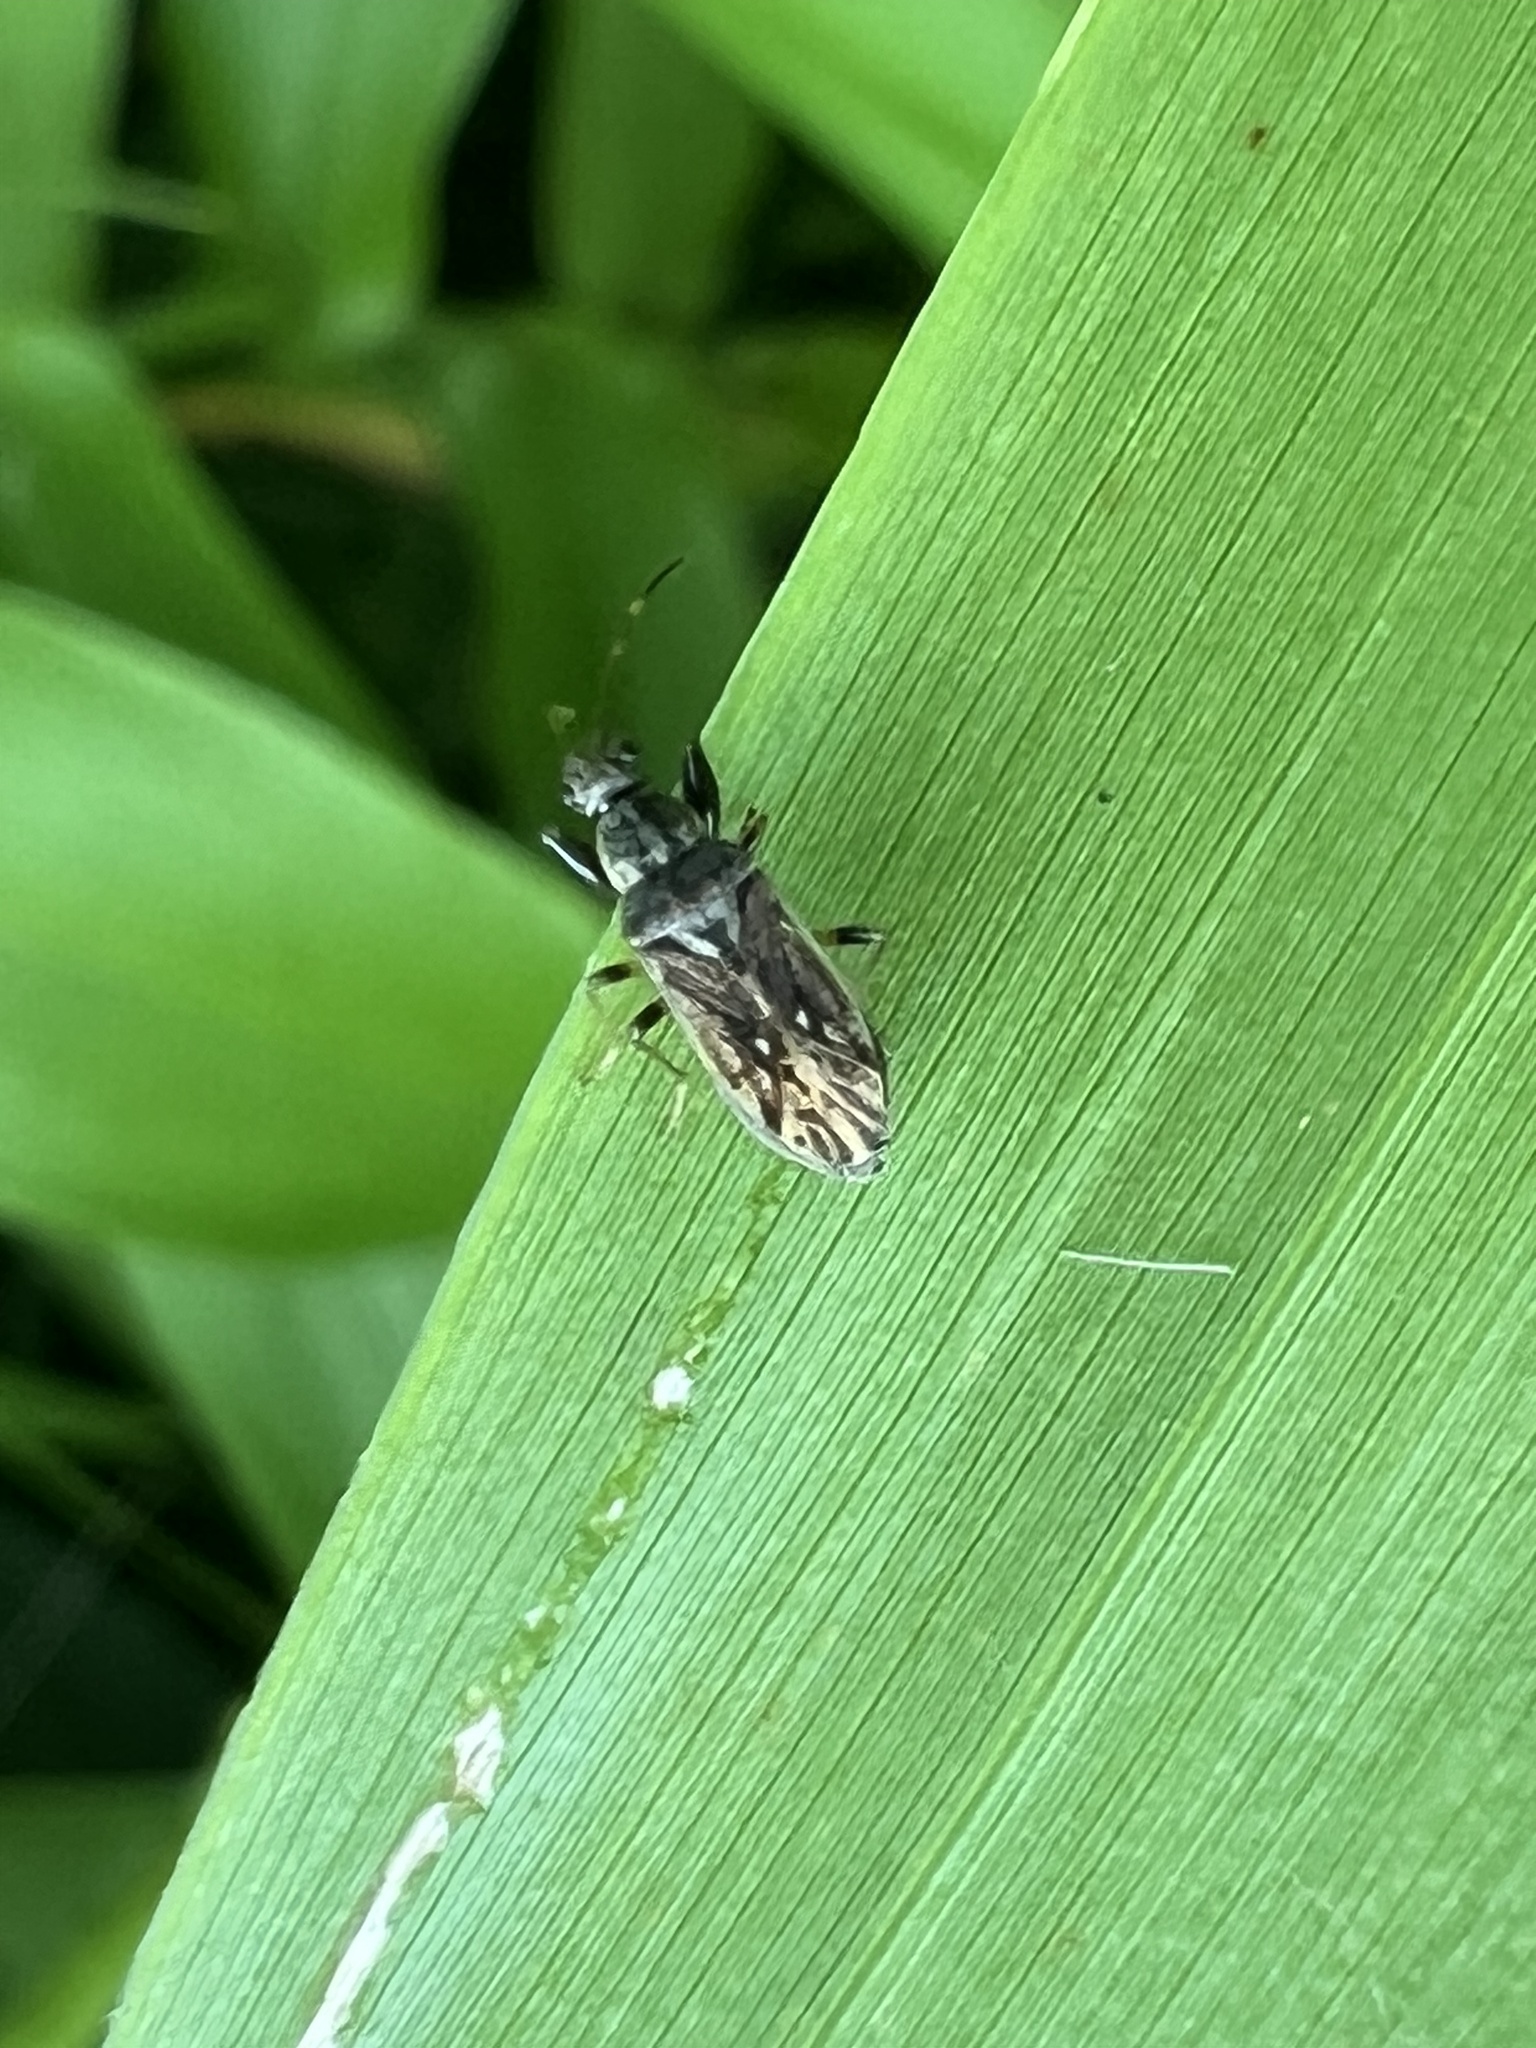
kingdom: Animalia
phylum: Arthropoda
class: Insecta
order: Hemiptera
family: Rhyparochromidae
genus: Pseudopachybrachius
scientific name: Pseudopachybrachius basalis
